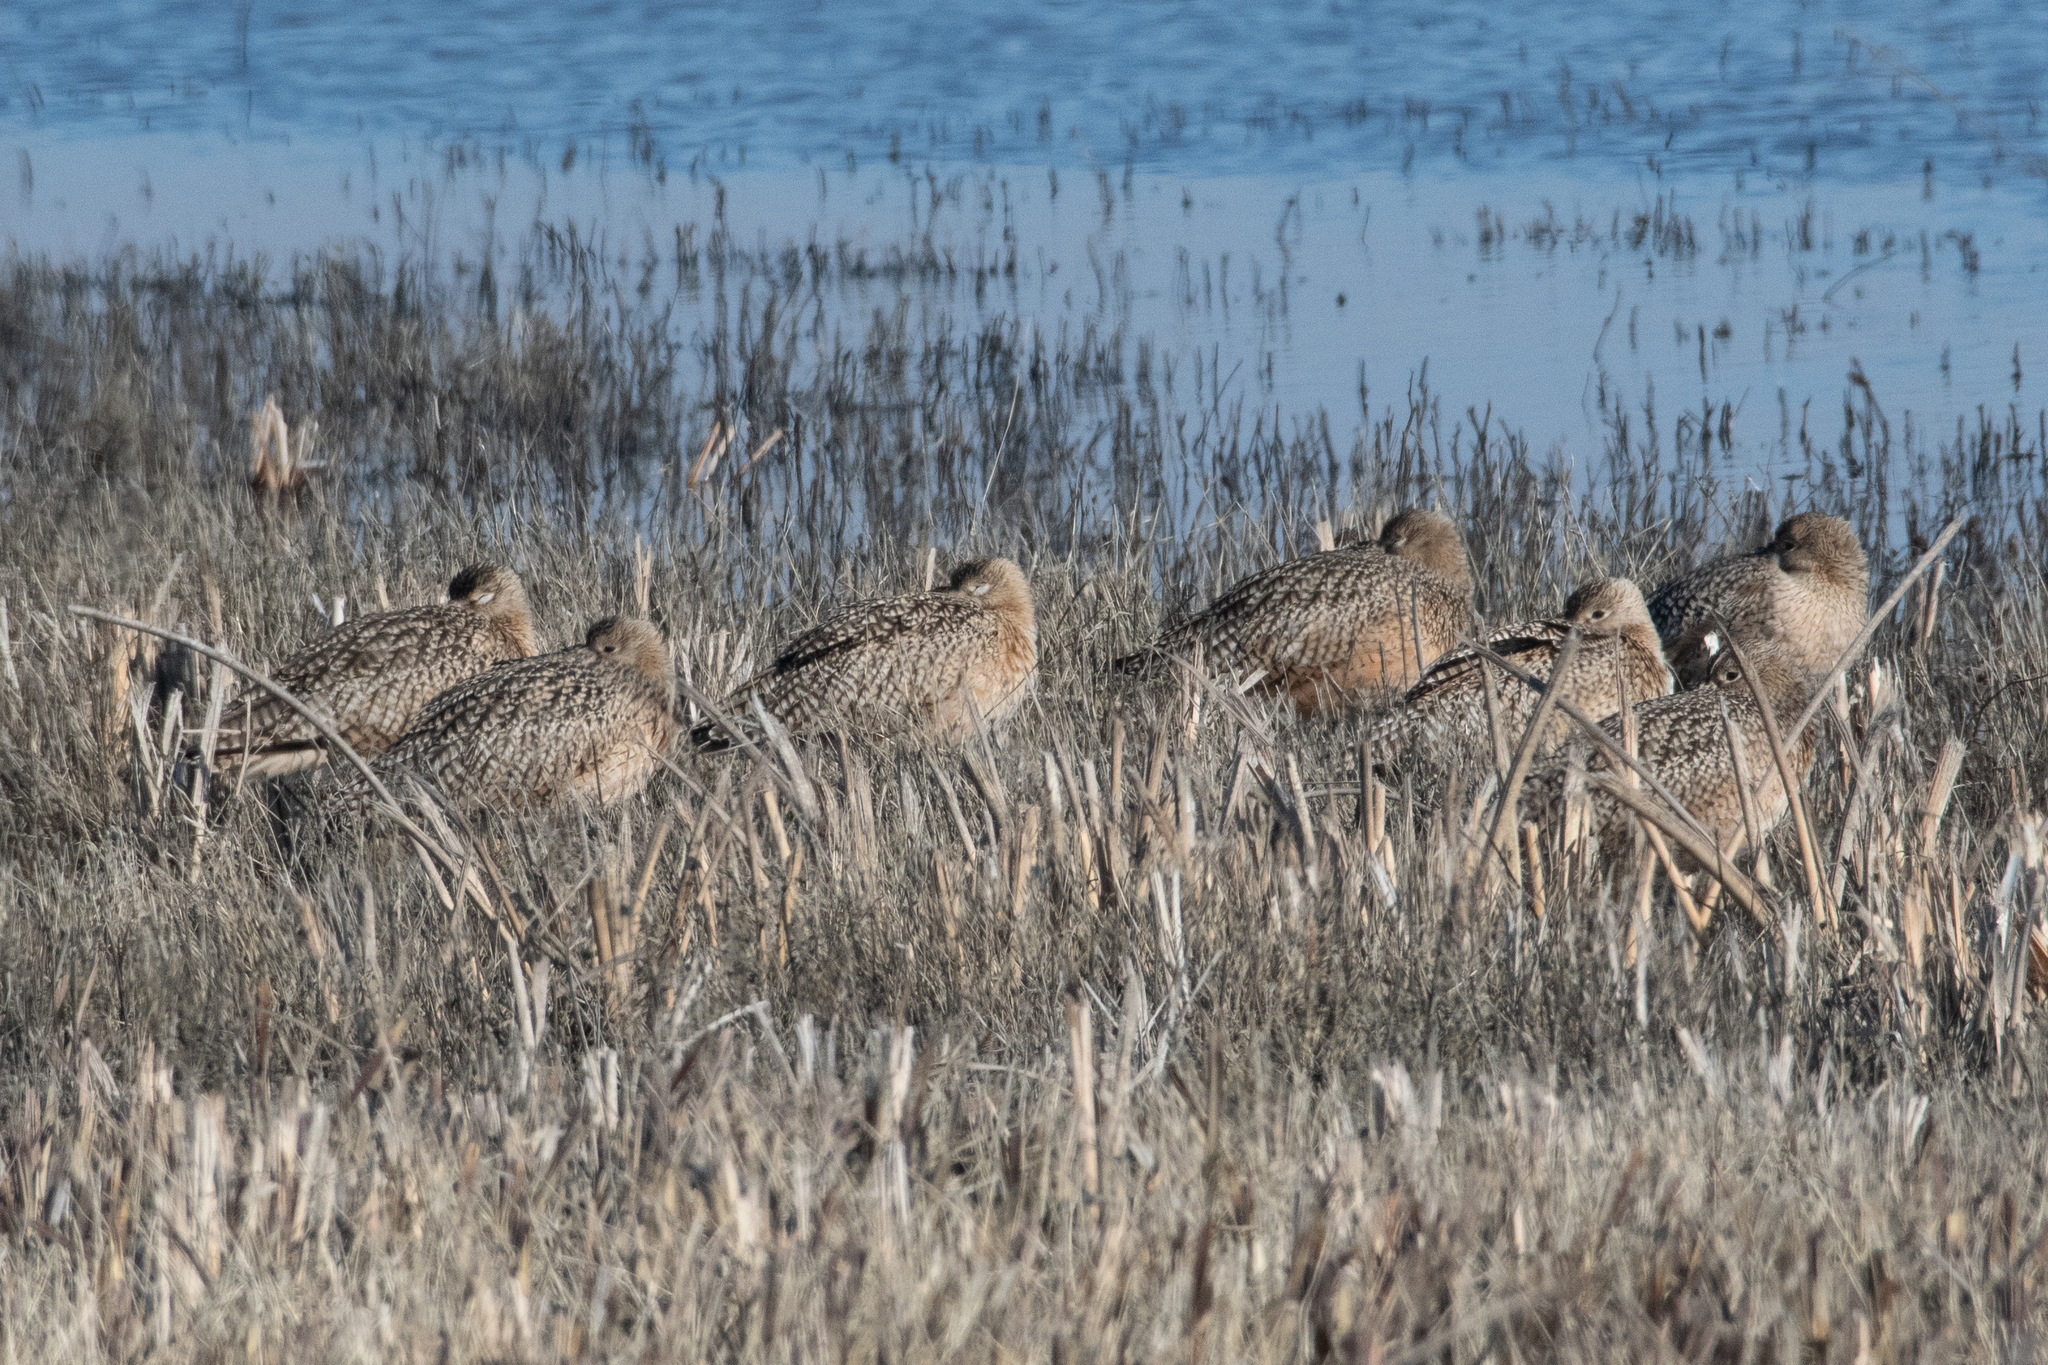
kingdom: Animalia
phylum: Chordata
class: Aves
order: Charadriiformes
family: Scolopacidae
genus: Numenius
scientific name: Numenius americanus
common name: Long-billed curlew
